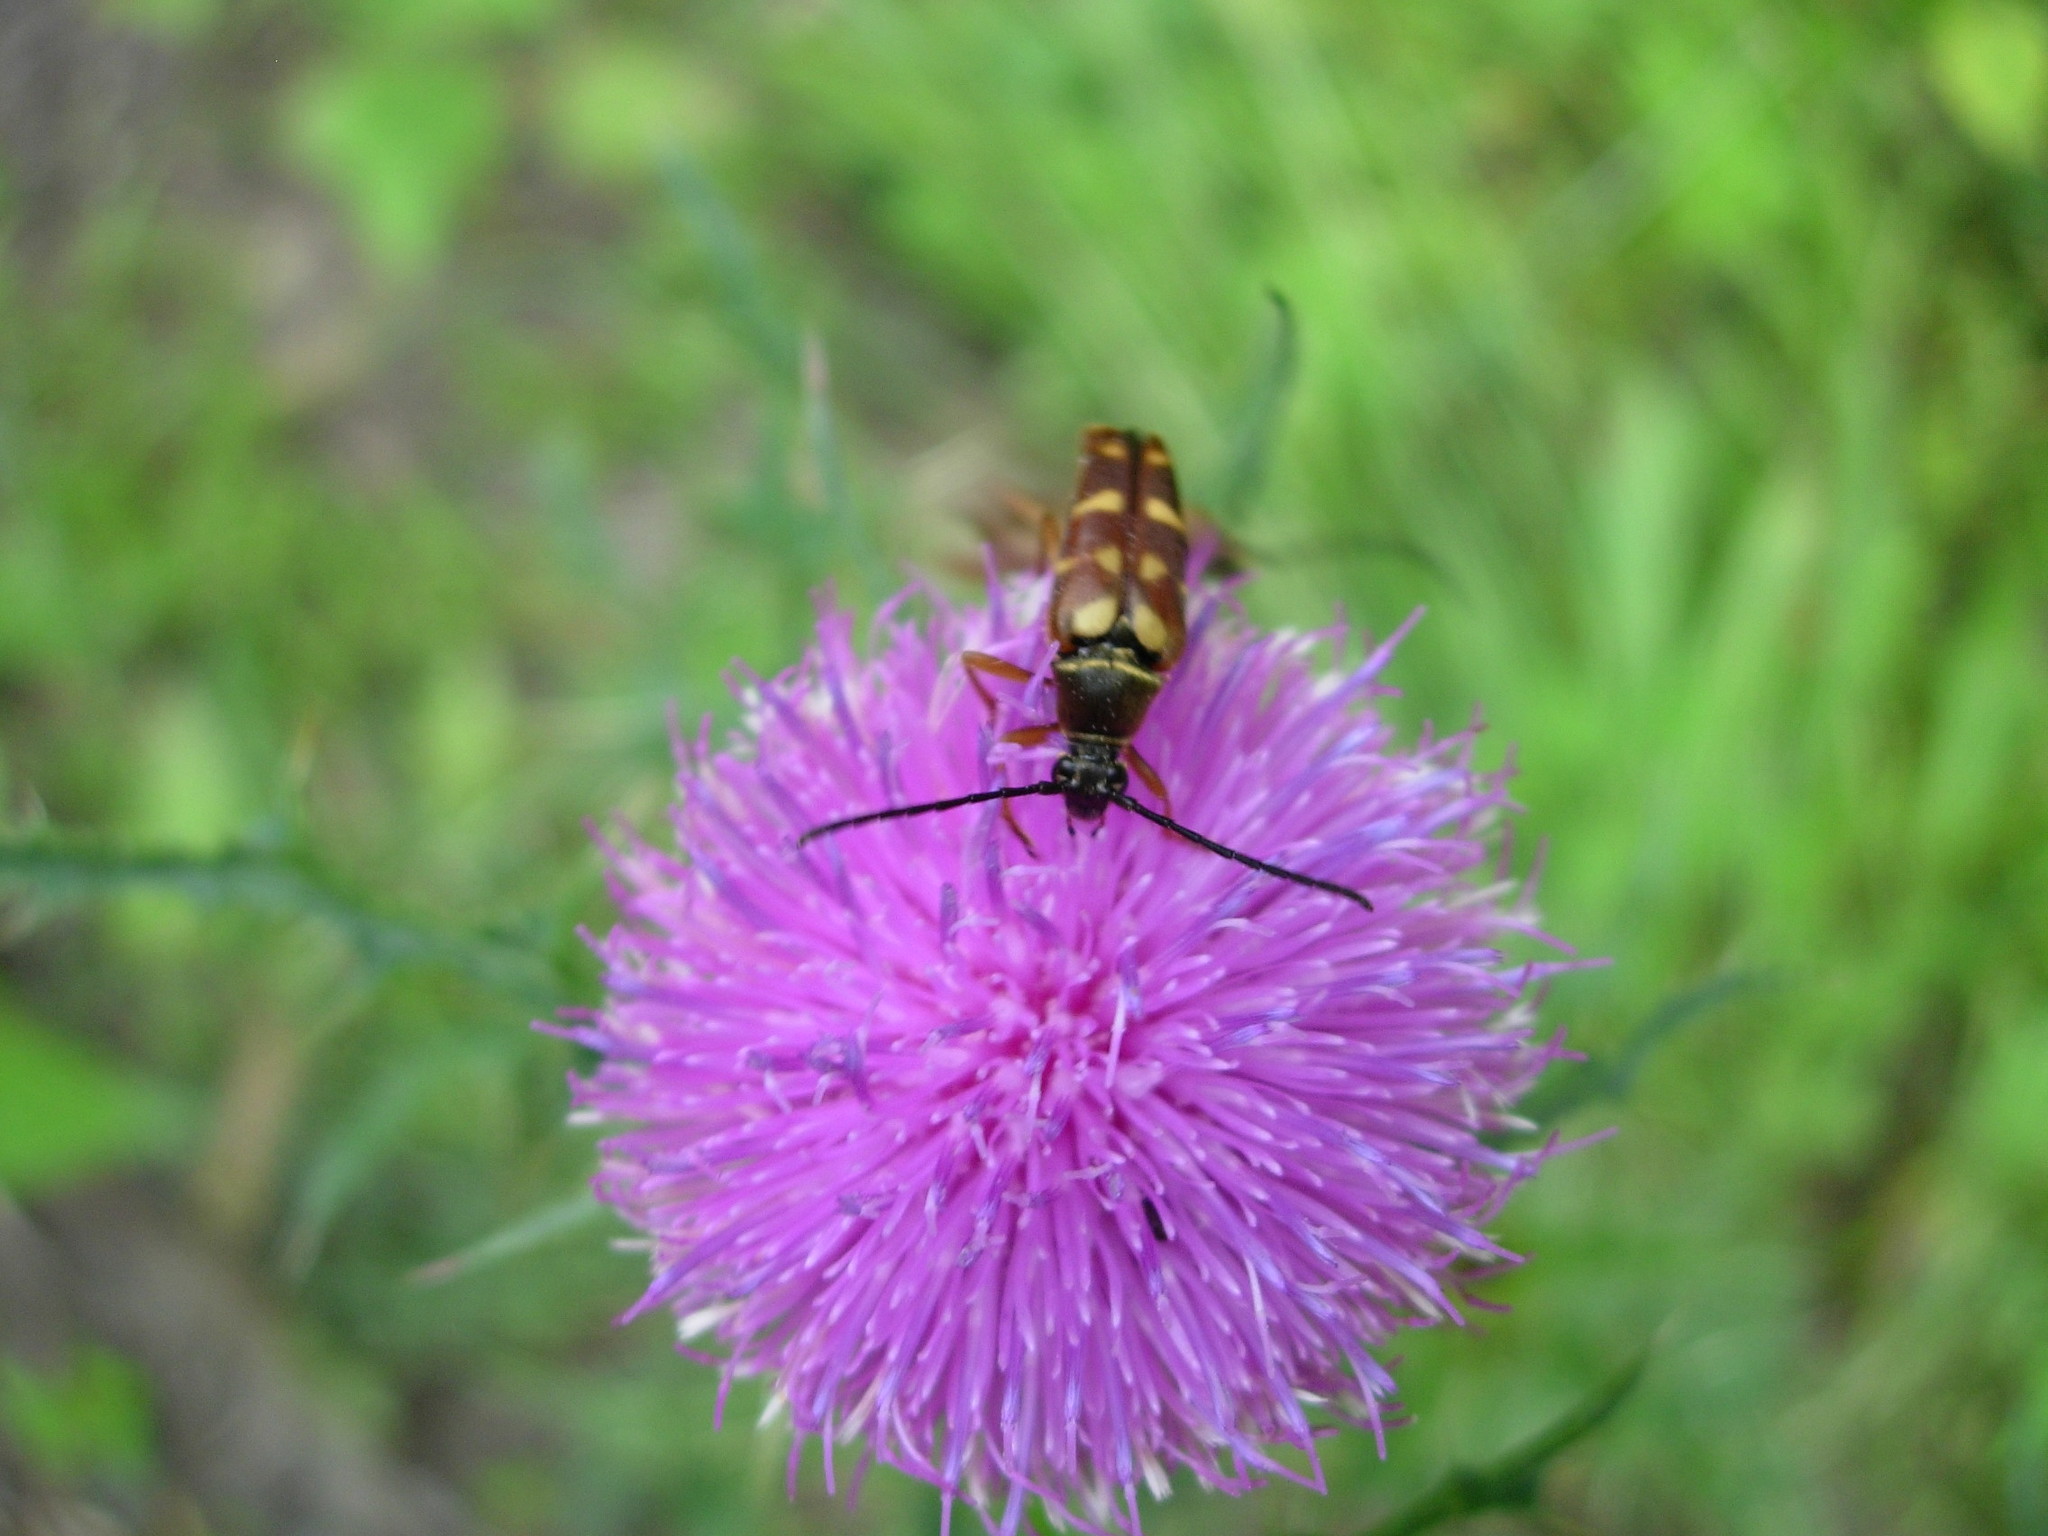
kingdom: Animalia
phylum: Arthropoda
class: Insecta
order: Coleoptera
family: Cerambycidae
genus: Typocerus
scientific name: Typocerus velutinus
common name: Banded longhorn beetle
